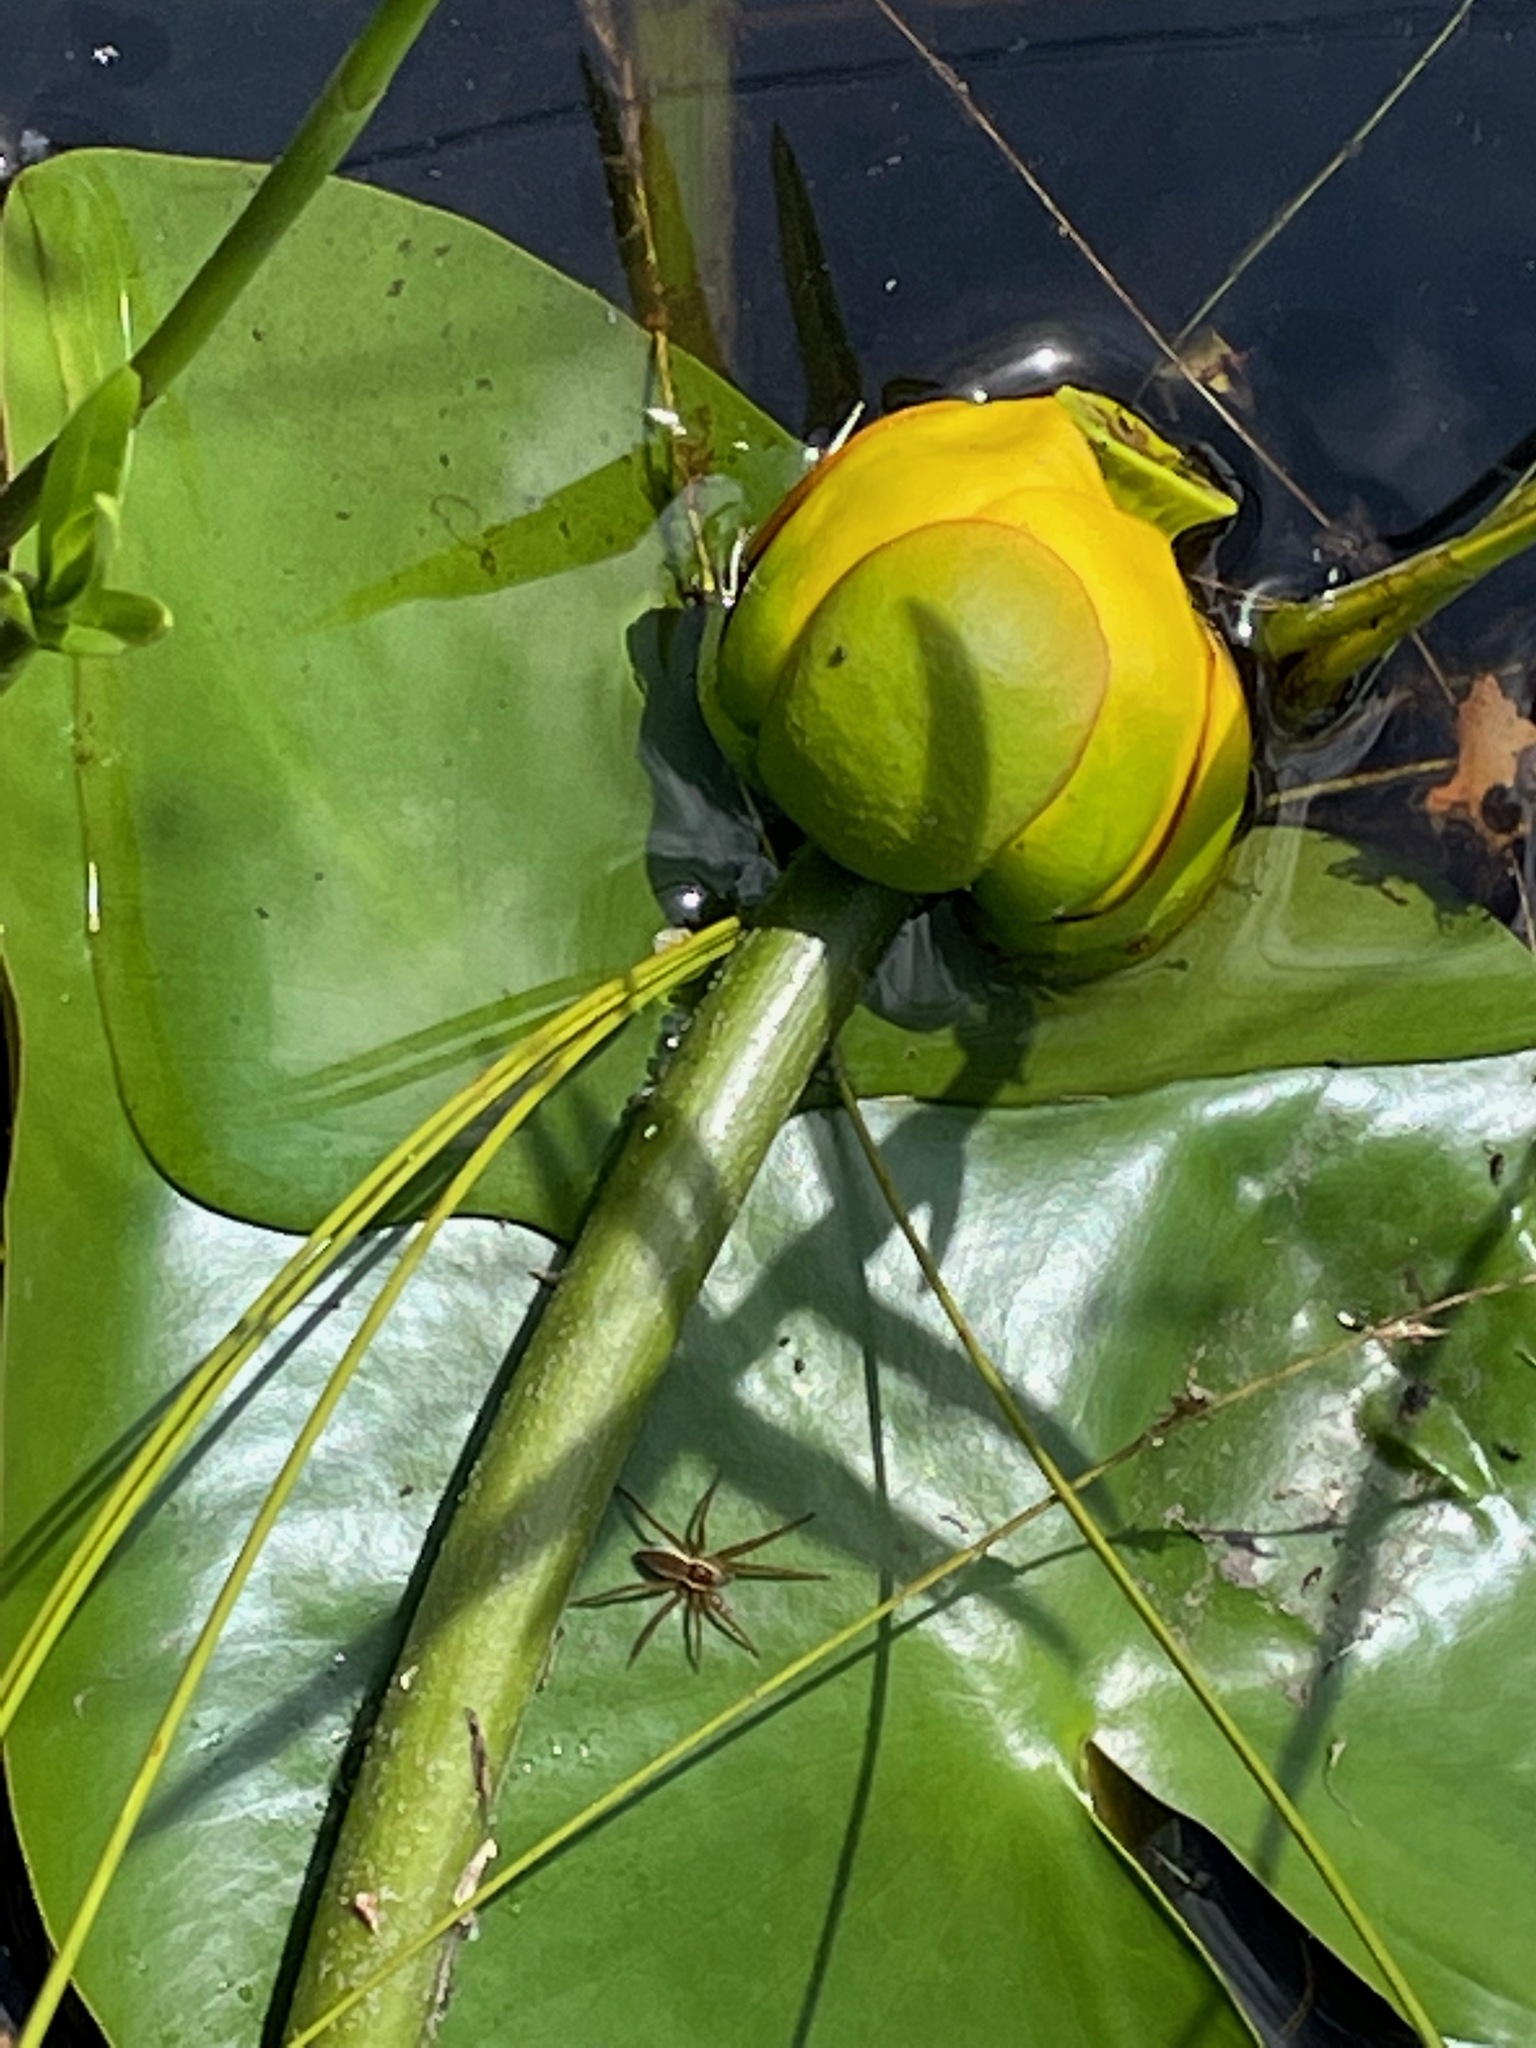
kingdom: Plantae
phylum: Tracheophyta
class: Magnoliopsida
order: Nymphaeales
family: Nymphaeaceae
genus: Nuphar
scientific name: Nuphar variegata
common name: Beaver-root
